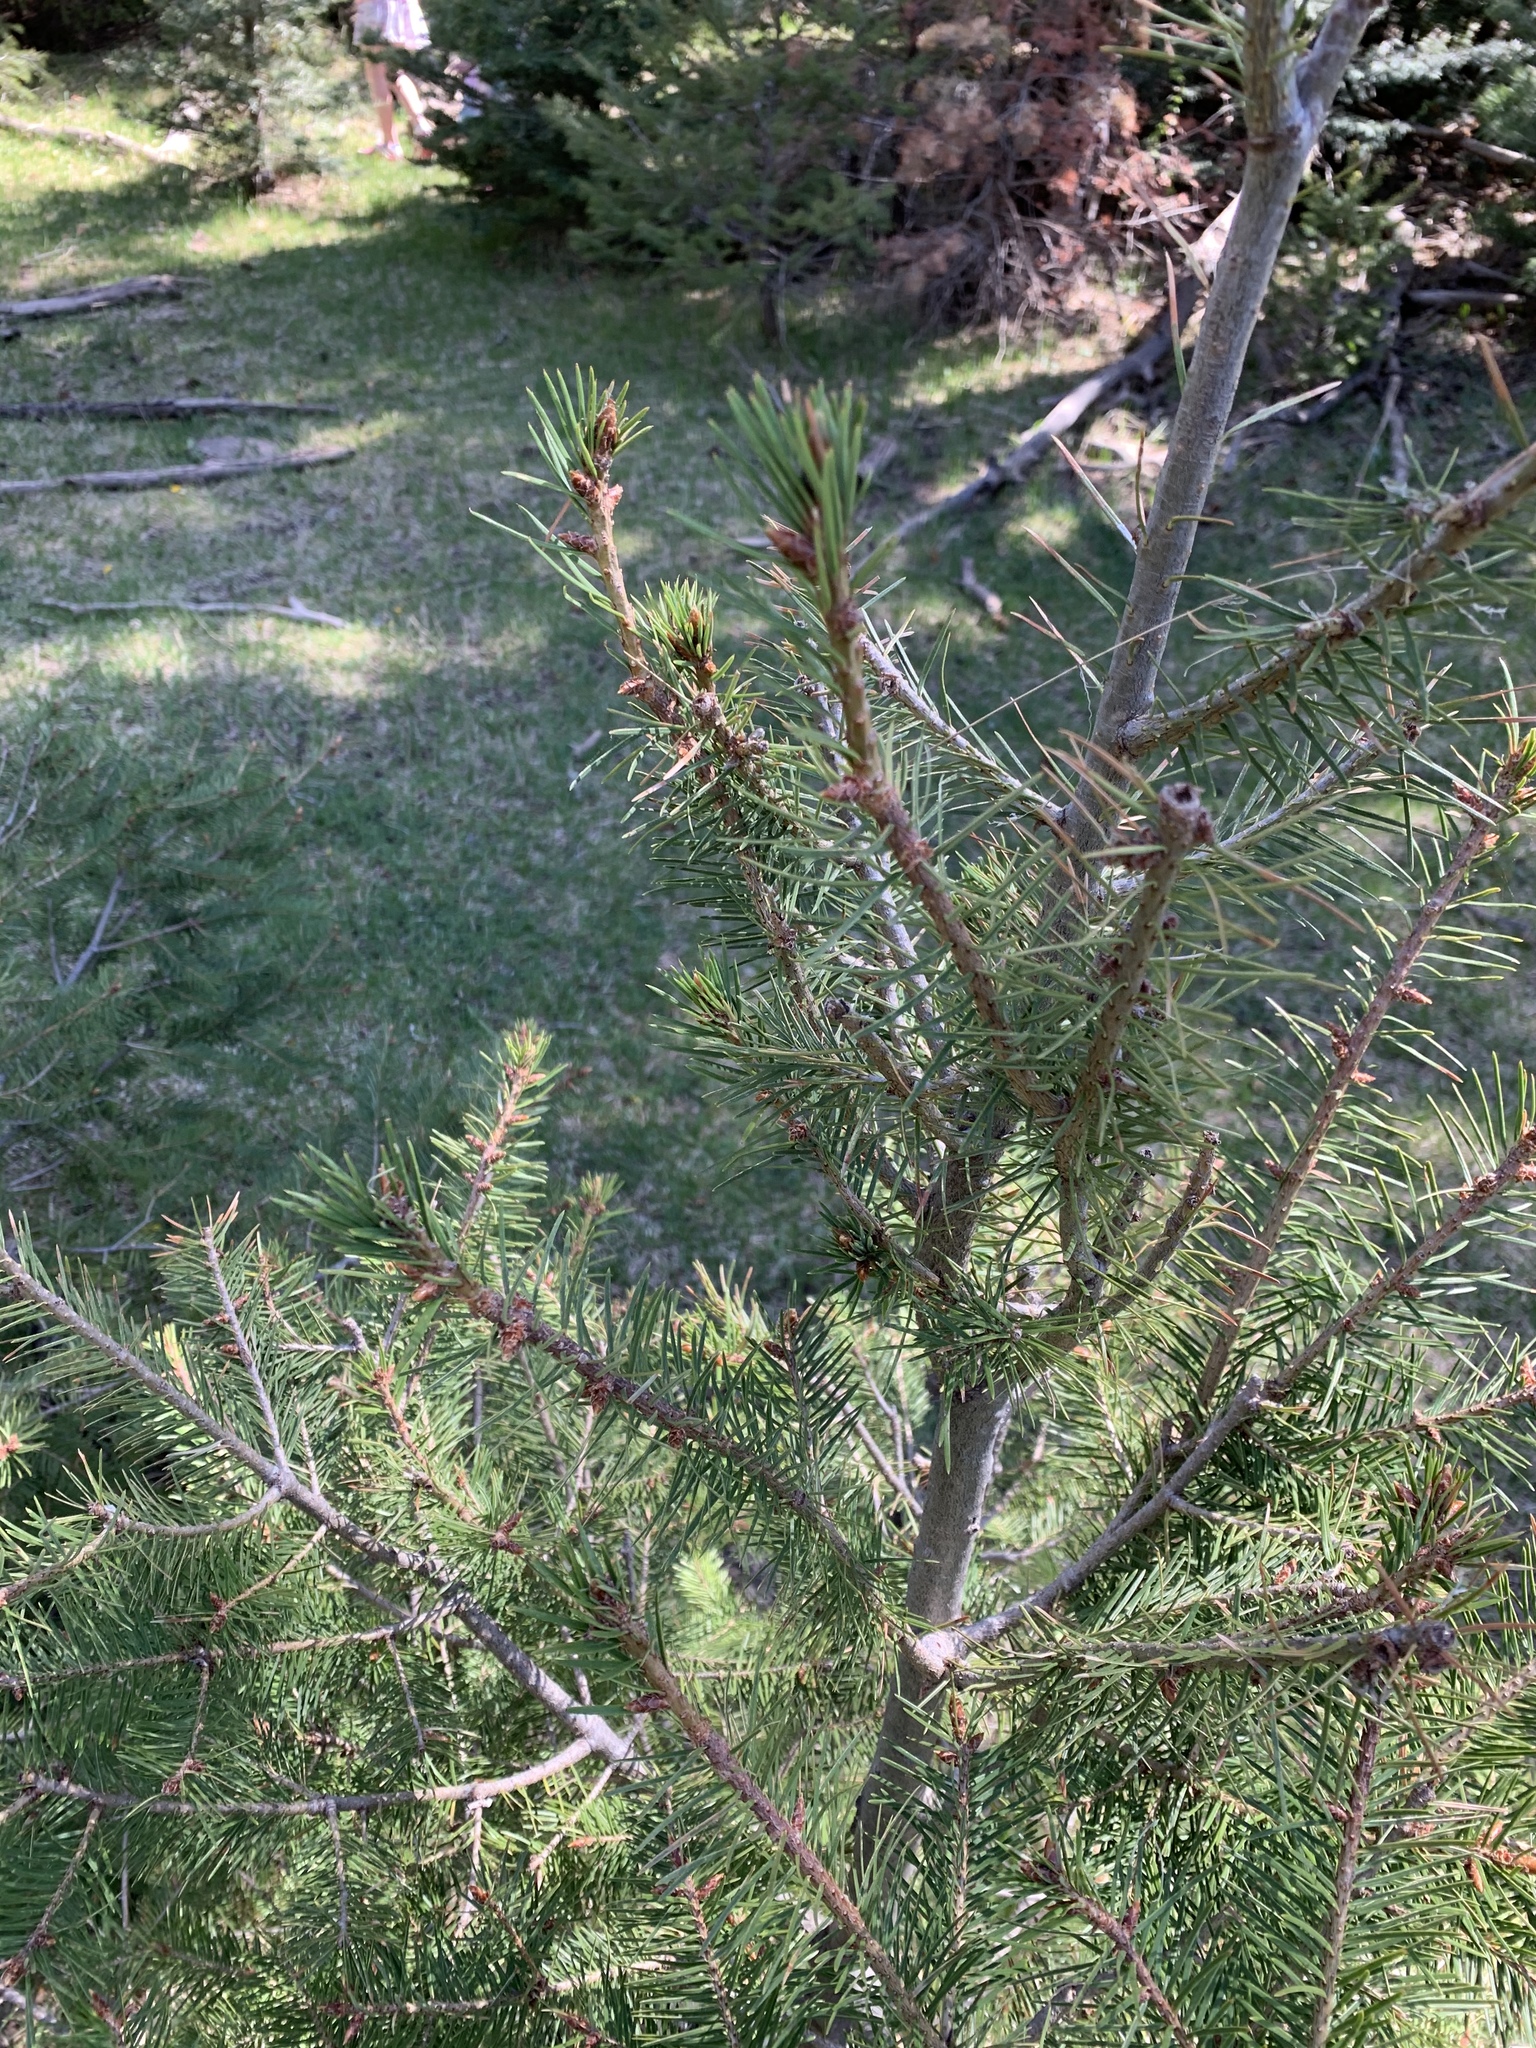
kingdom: Plantae
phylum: Tracheophyta
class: Pinopsida
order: Pinales
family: Pinaceae
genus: Pseudotsuga
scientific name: Pseudotsuga menziesii
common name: Douglas fir
